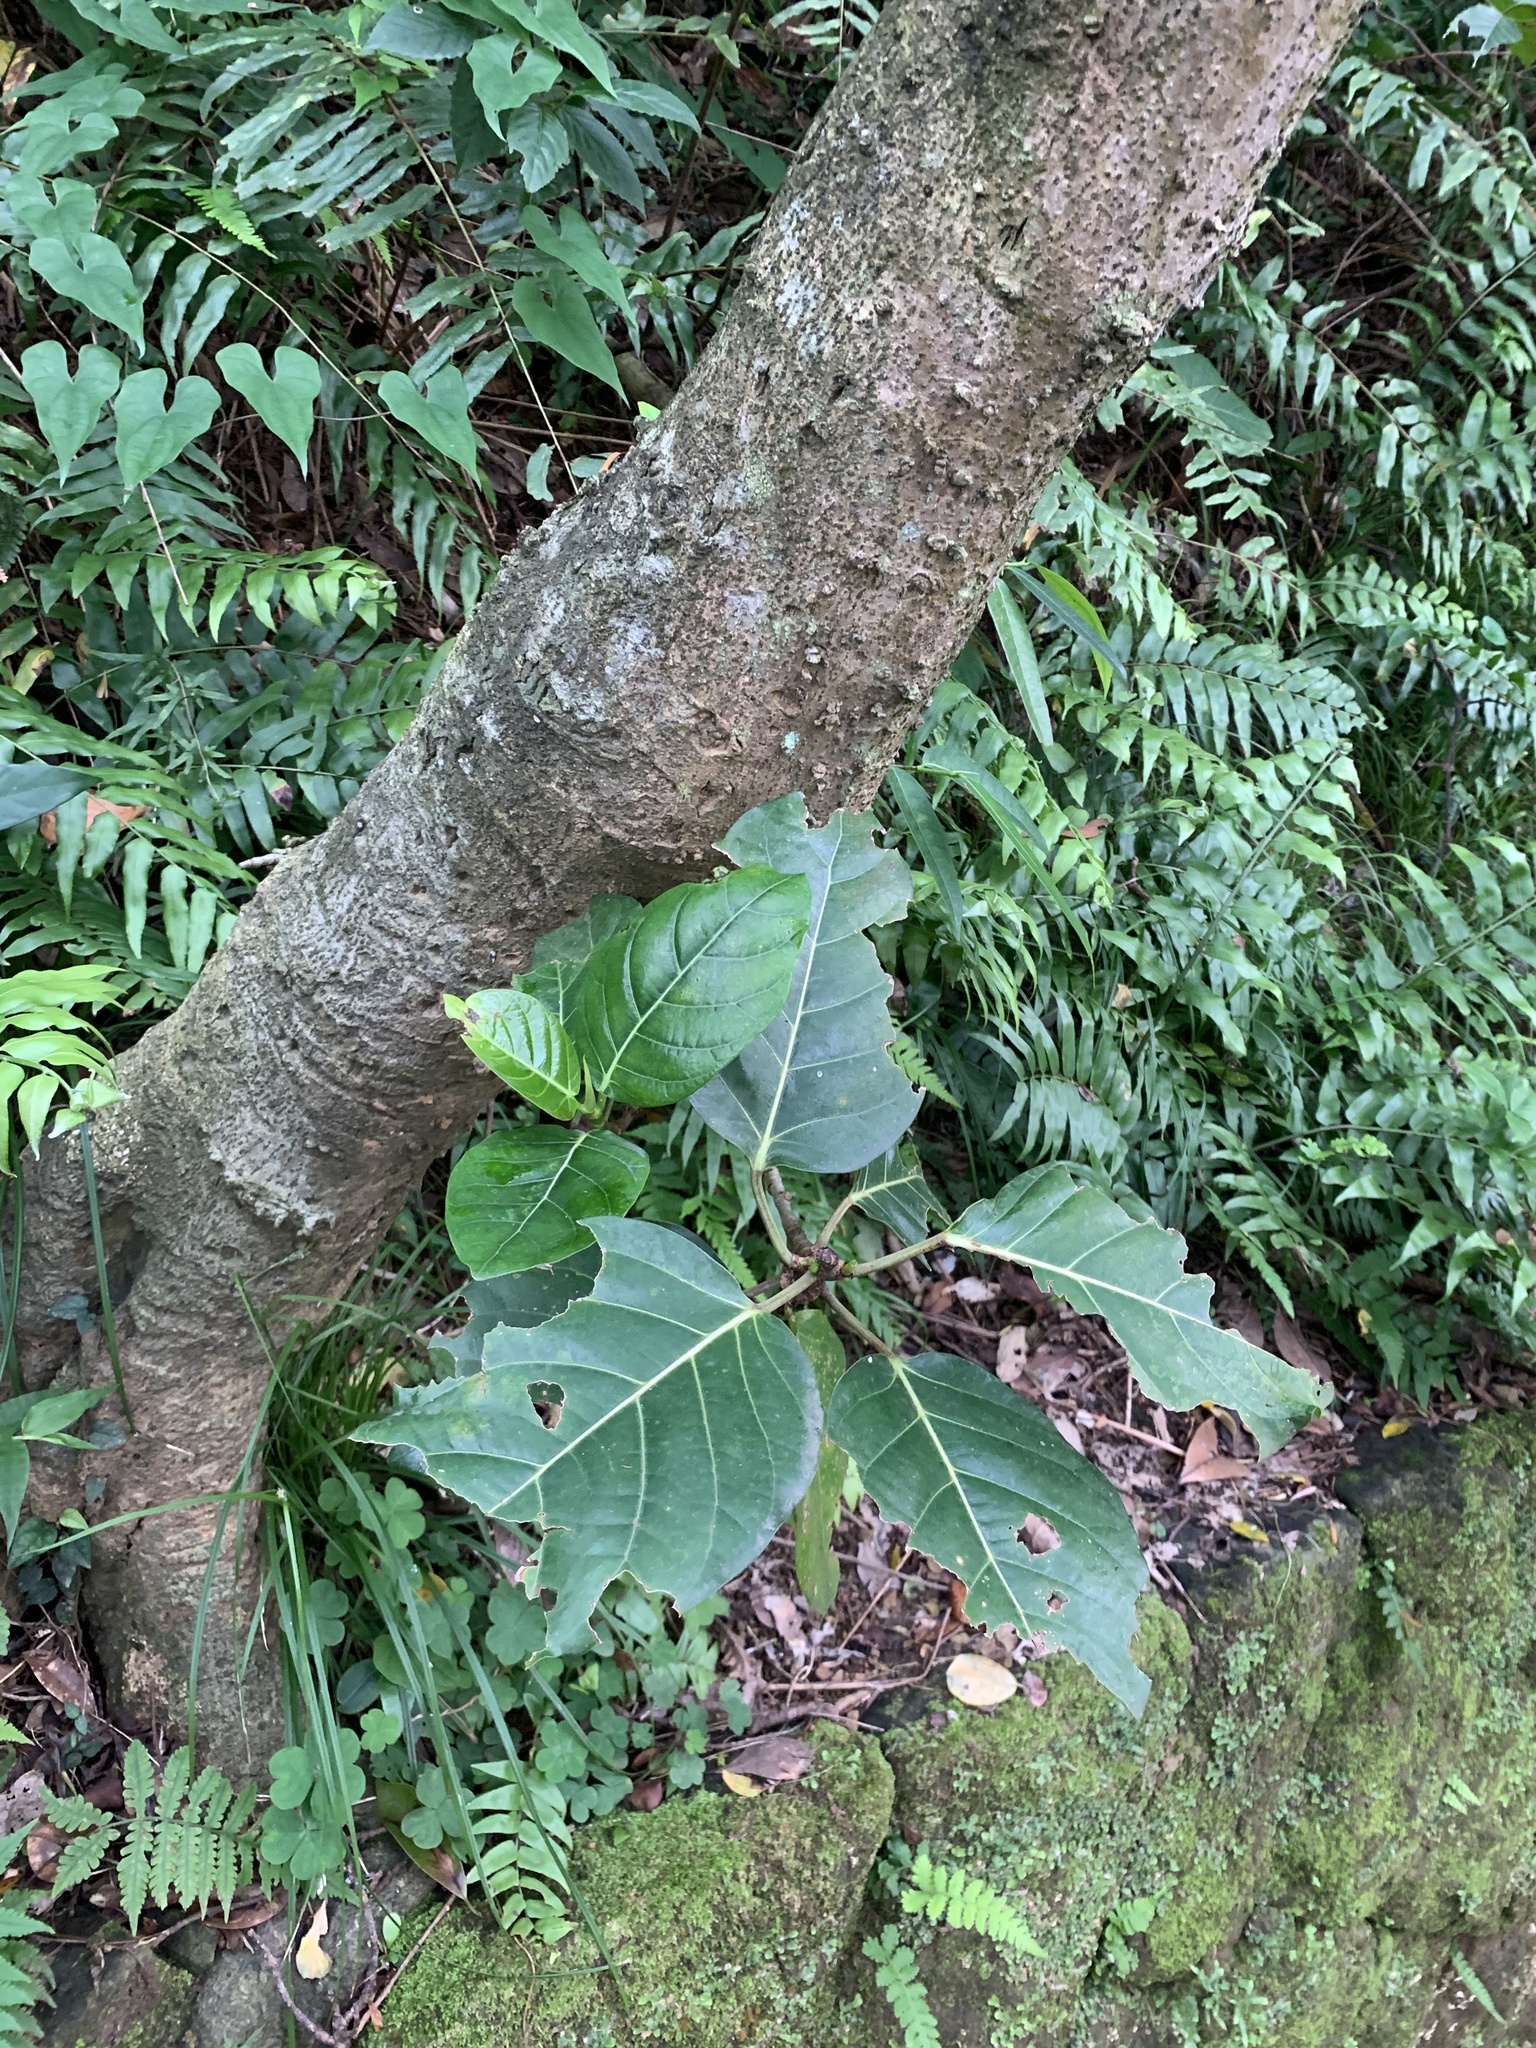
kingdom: Plantae
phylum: Tracheophyta
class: Magnoliopsida
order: Rosales
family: Moraceae
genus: Ficus
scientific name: Ficus septica
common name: Septic fig
